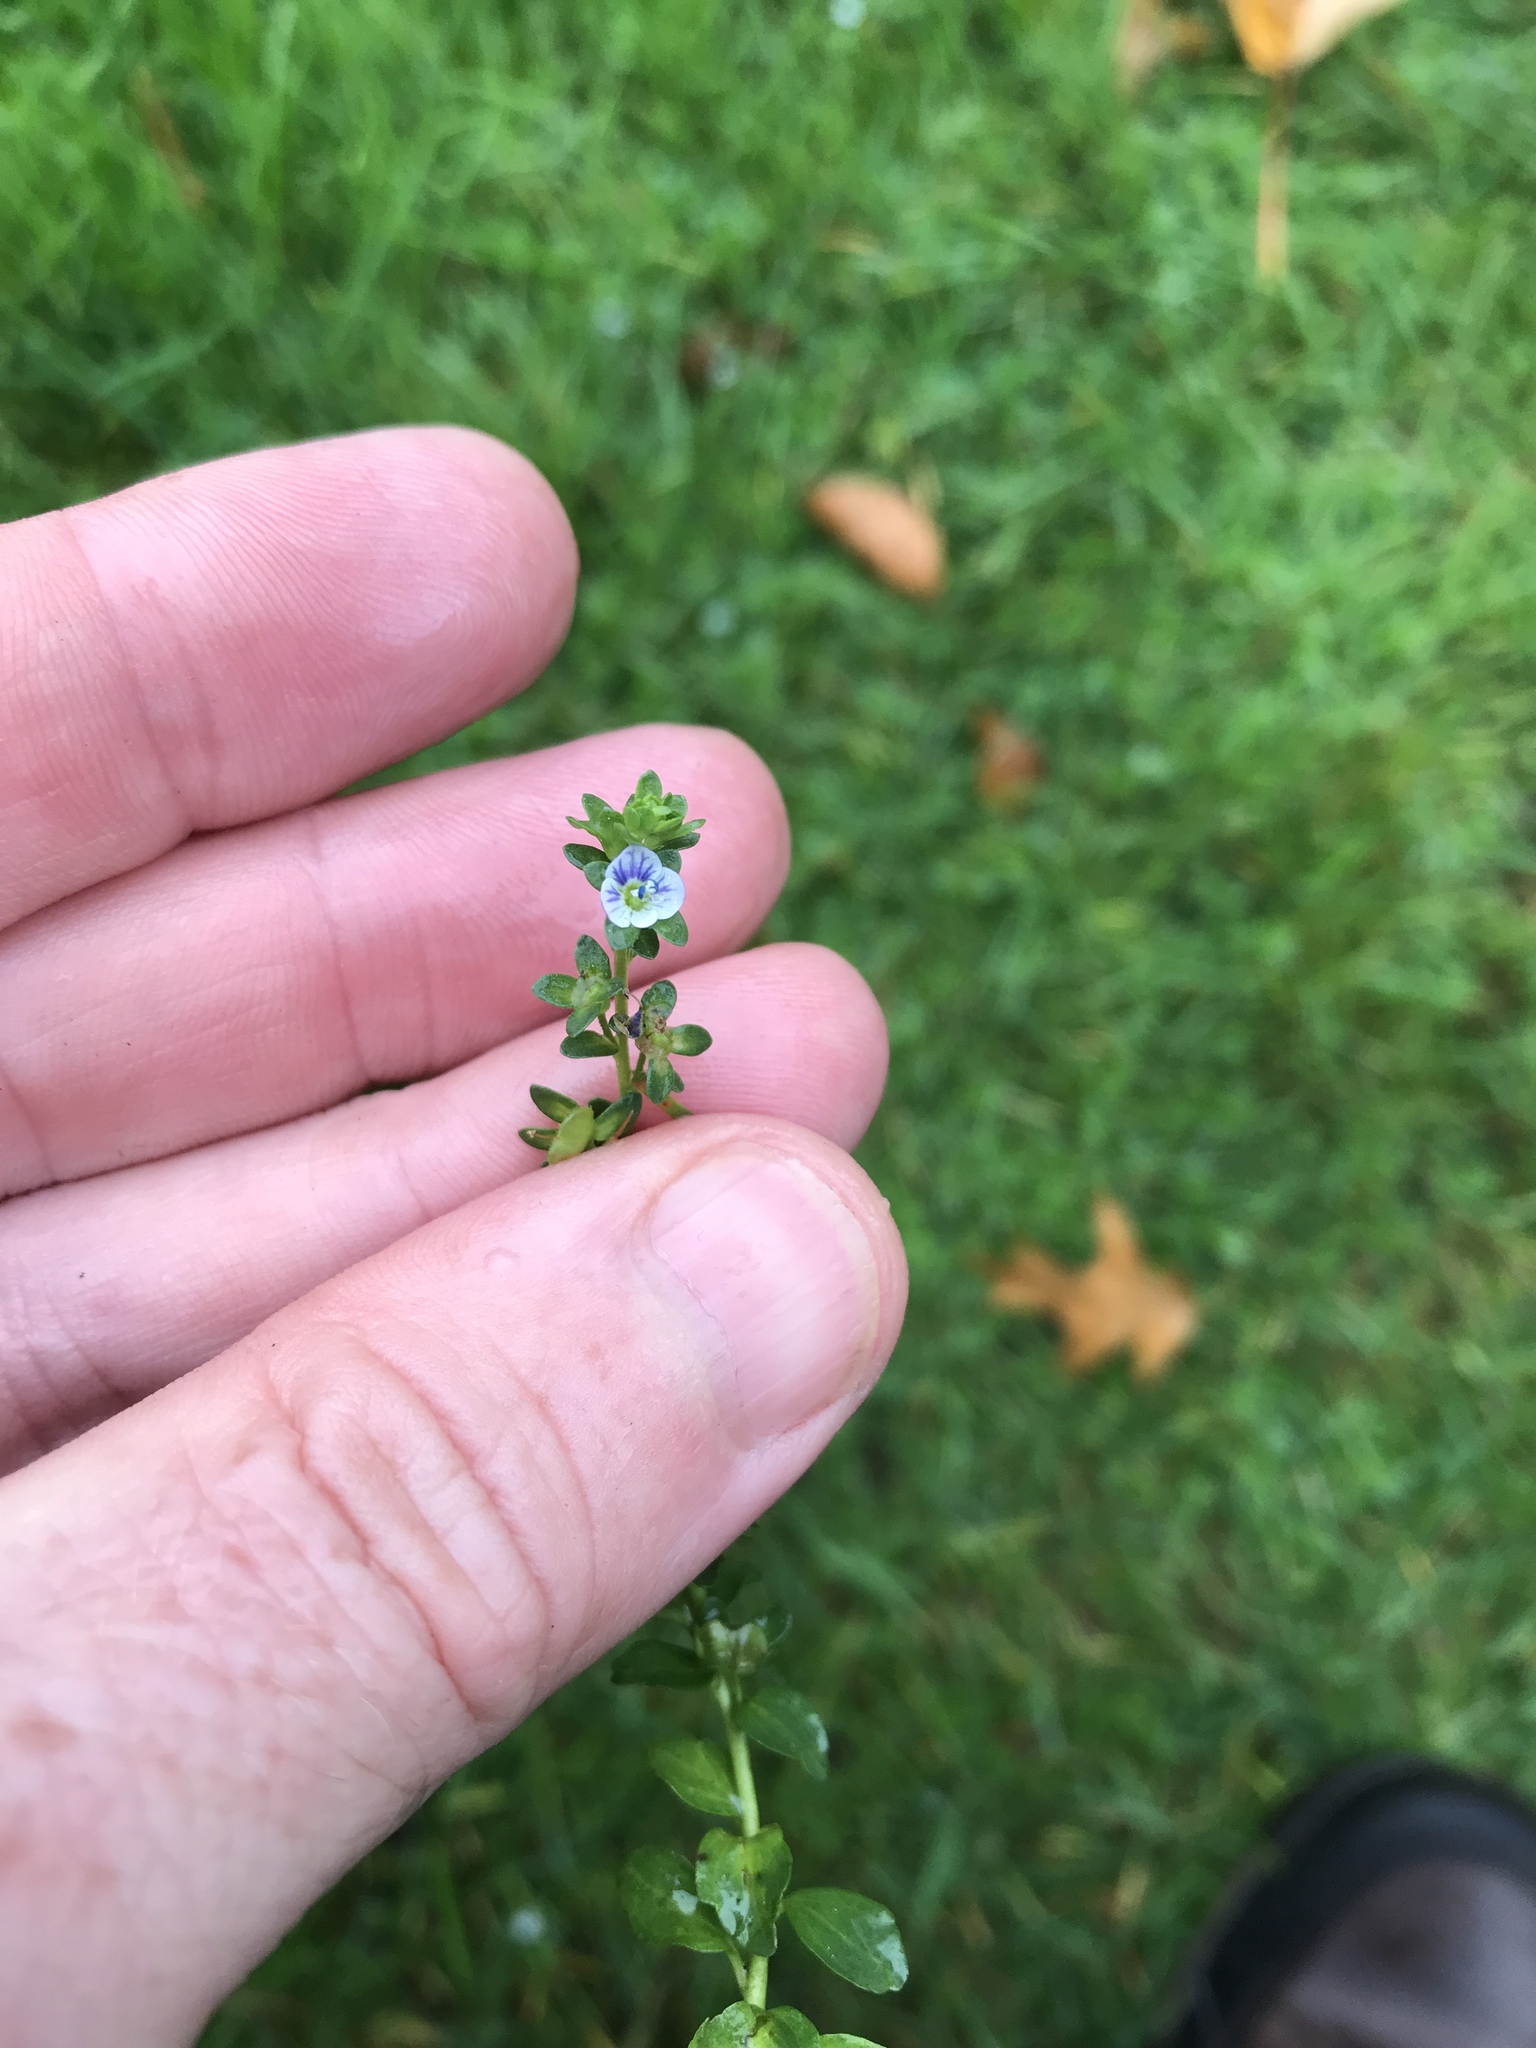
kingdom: Plantae
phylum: Tracheophyta
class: Magnoliopsida
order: Lamiales
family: Plantaginaceae
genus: Veronica
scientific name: Veronica serpyllifolia
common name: Thyme-leaved speedwell
